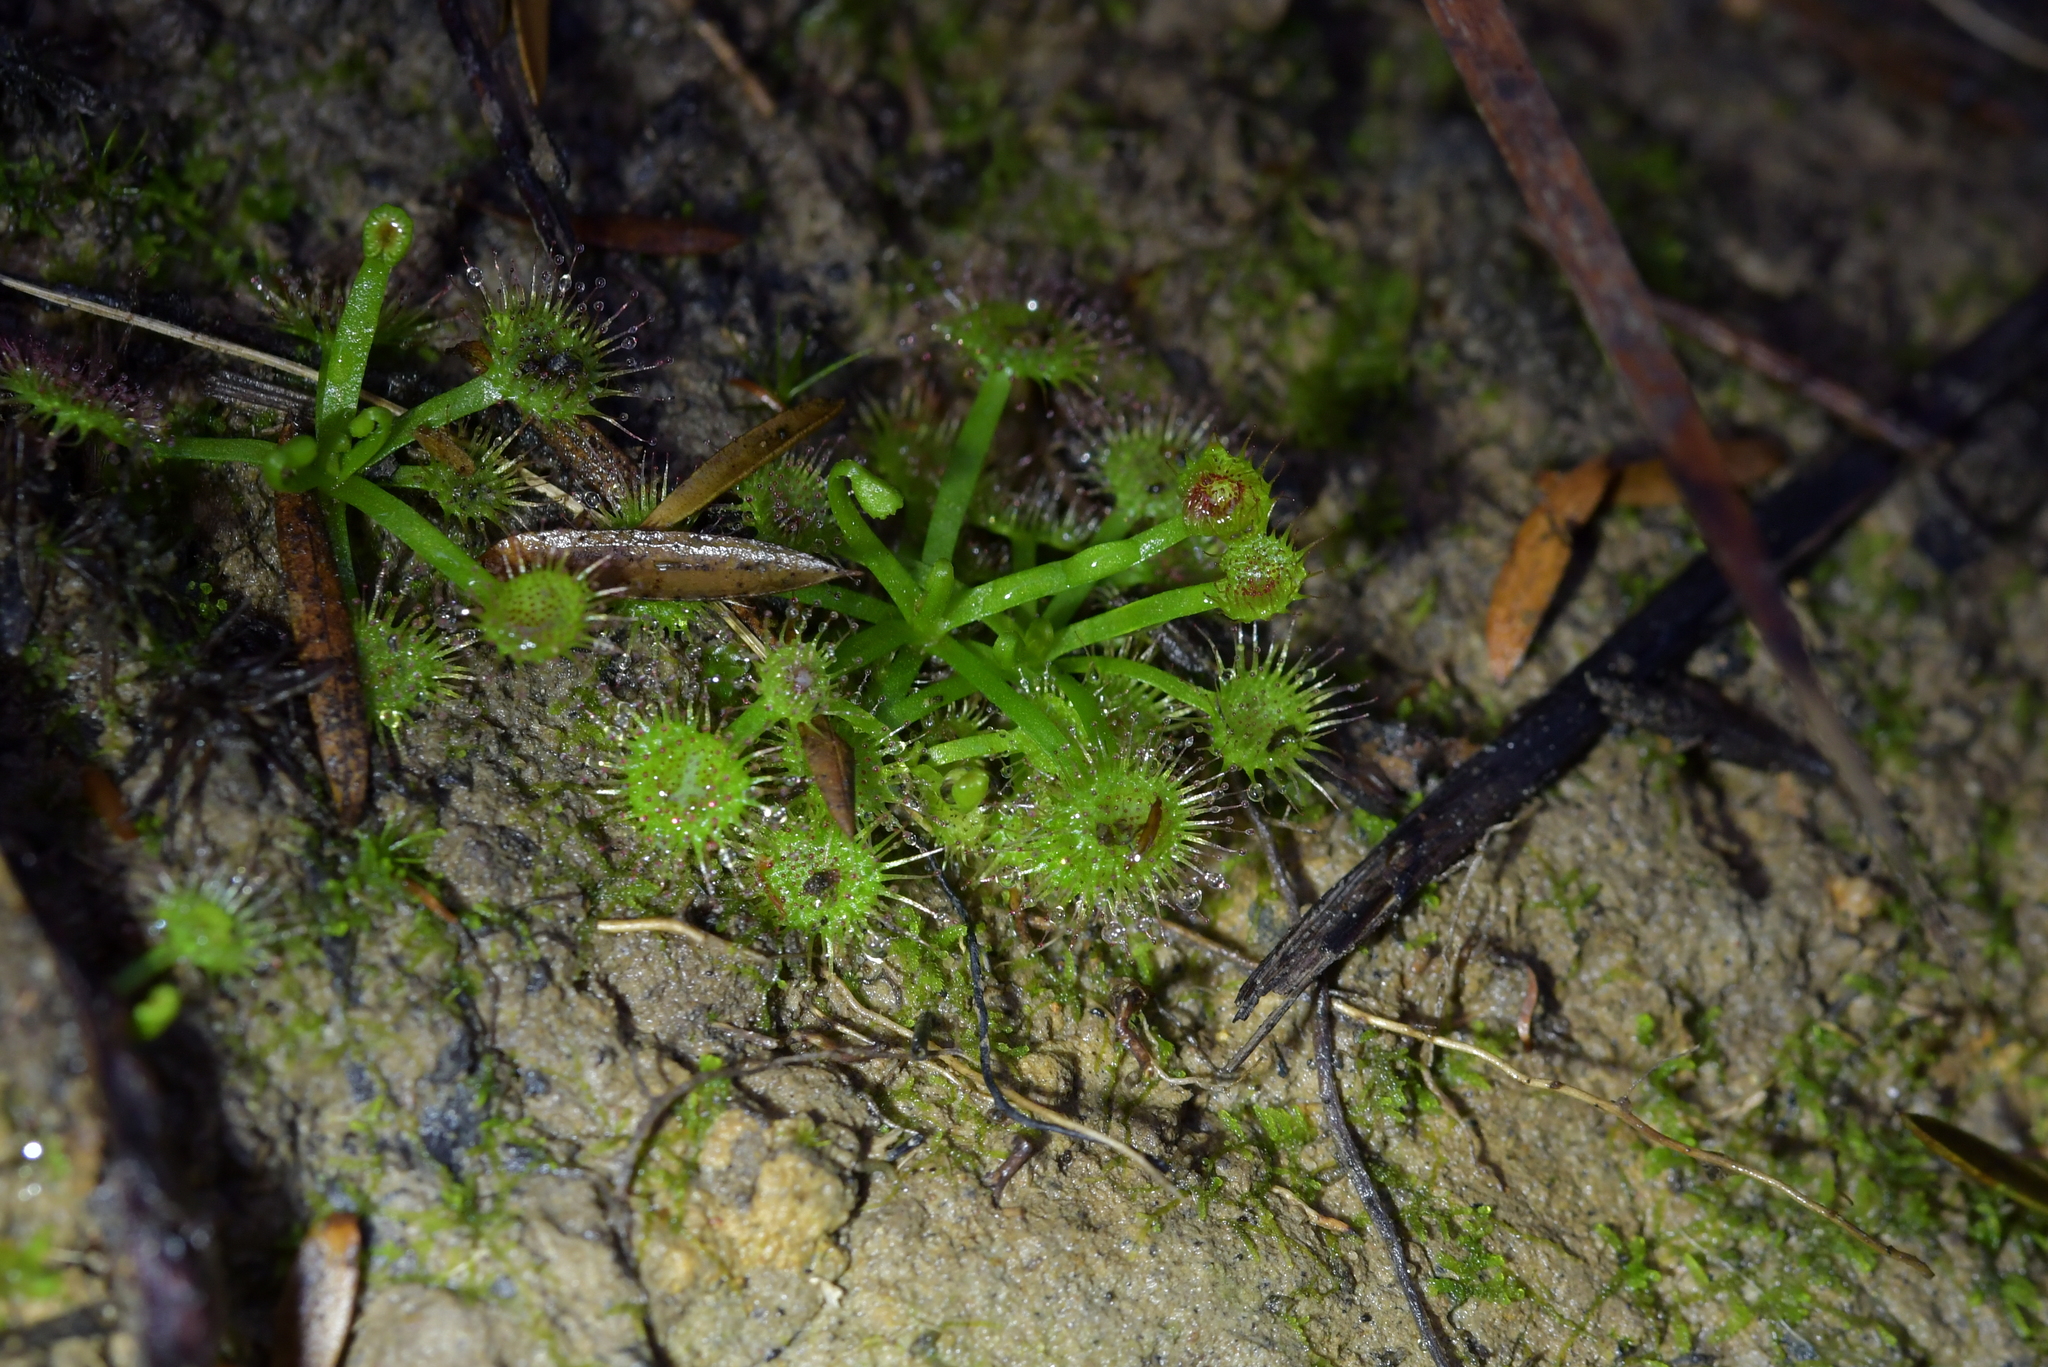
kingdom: Plantae
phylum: Tracheophyta
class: Magnoliopsida
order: Caryophyllales
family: Droseraceae
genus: Drosera
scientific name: Drosera peltata
